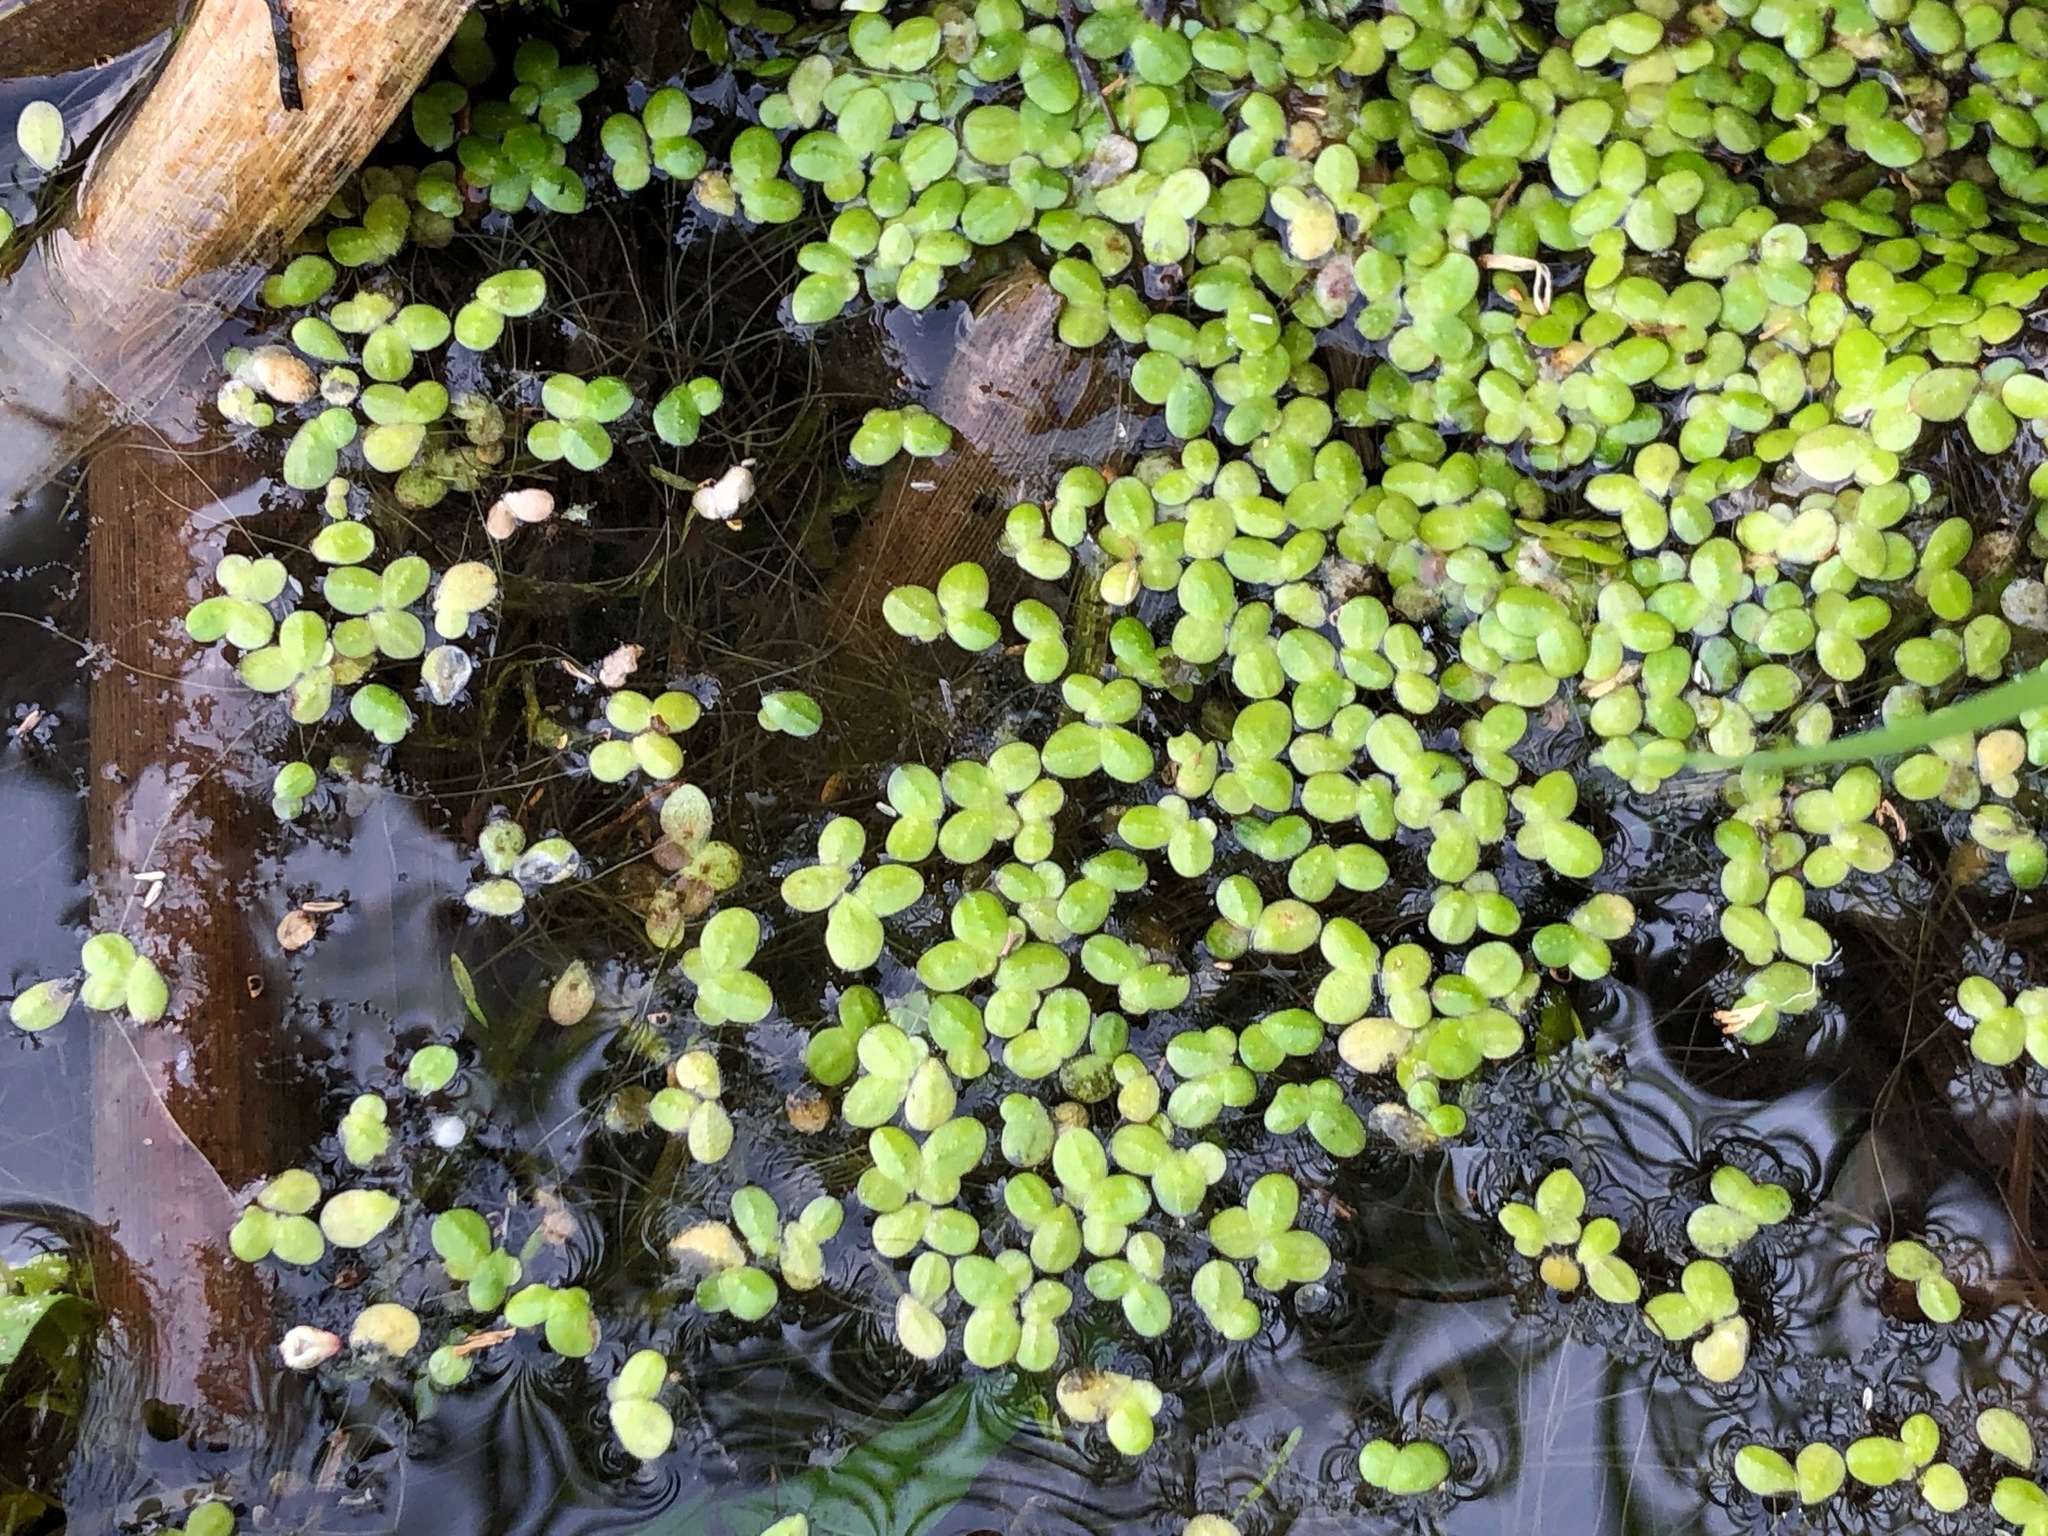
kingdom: Plantae
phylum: Tracheophyta
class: Liliopsida
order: Alismatales
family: Araceae
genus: Lemna
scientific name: Lemna minor
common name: Common duckweed
